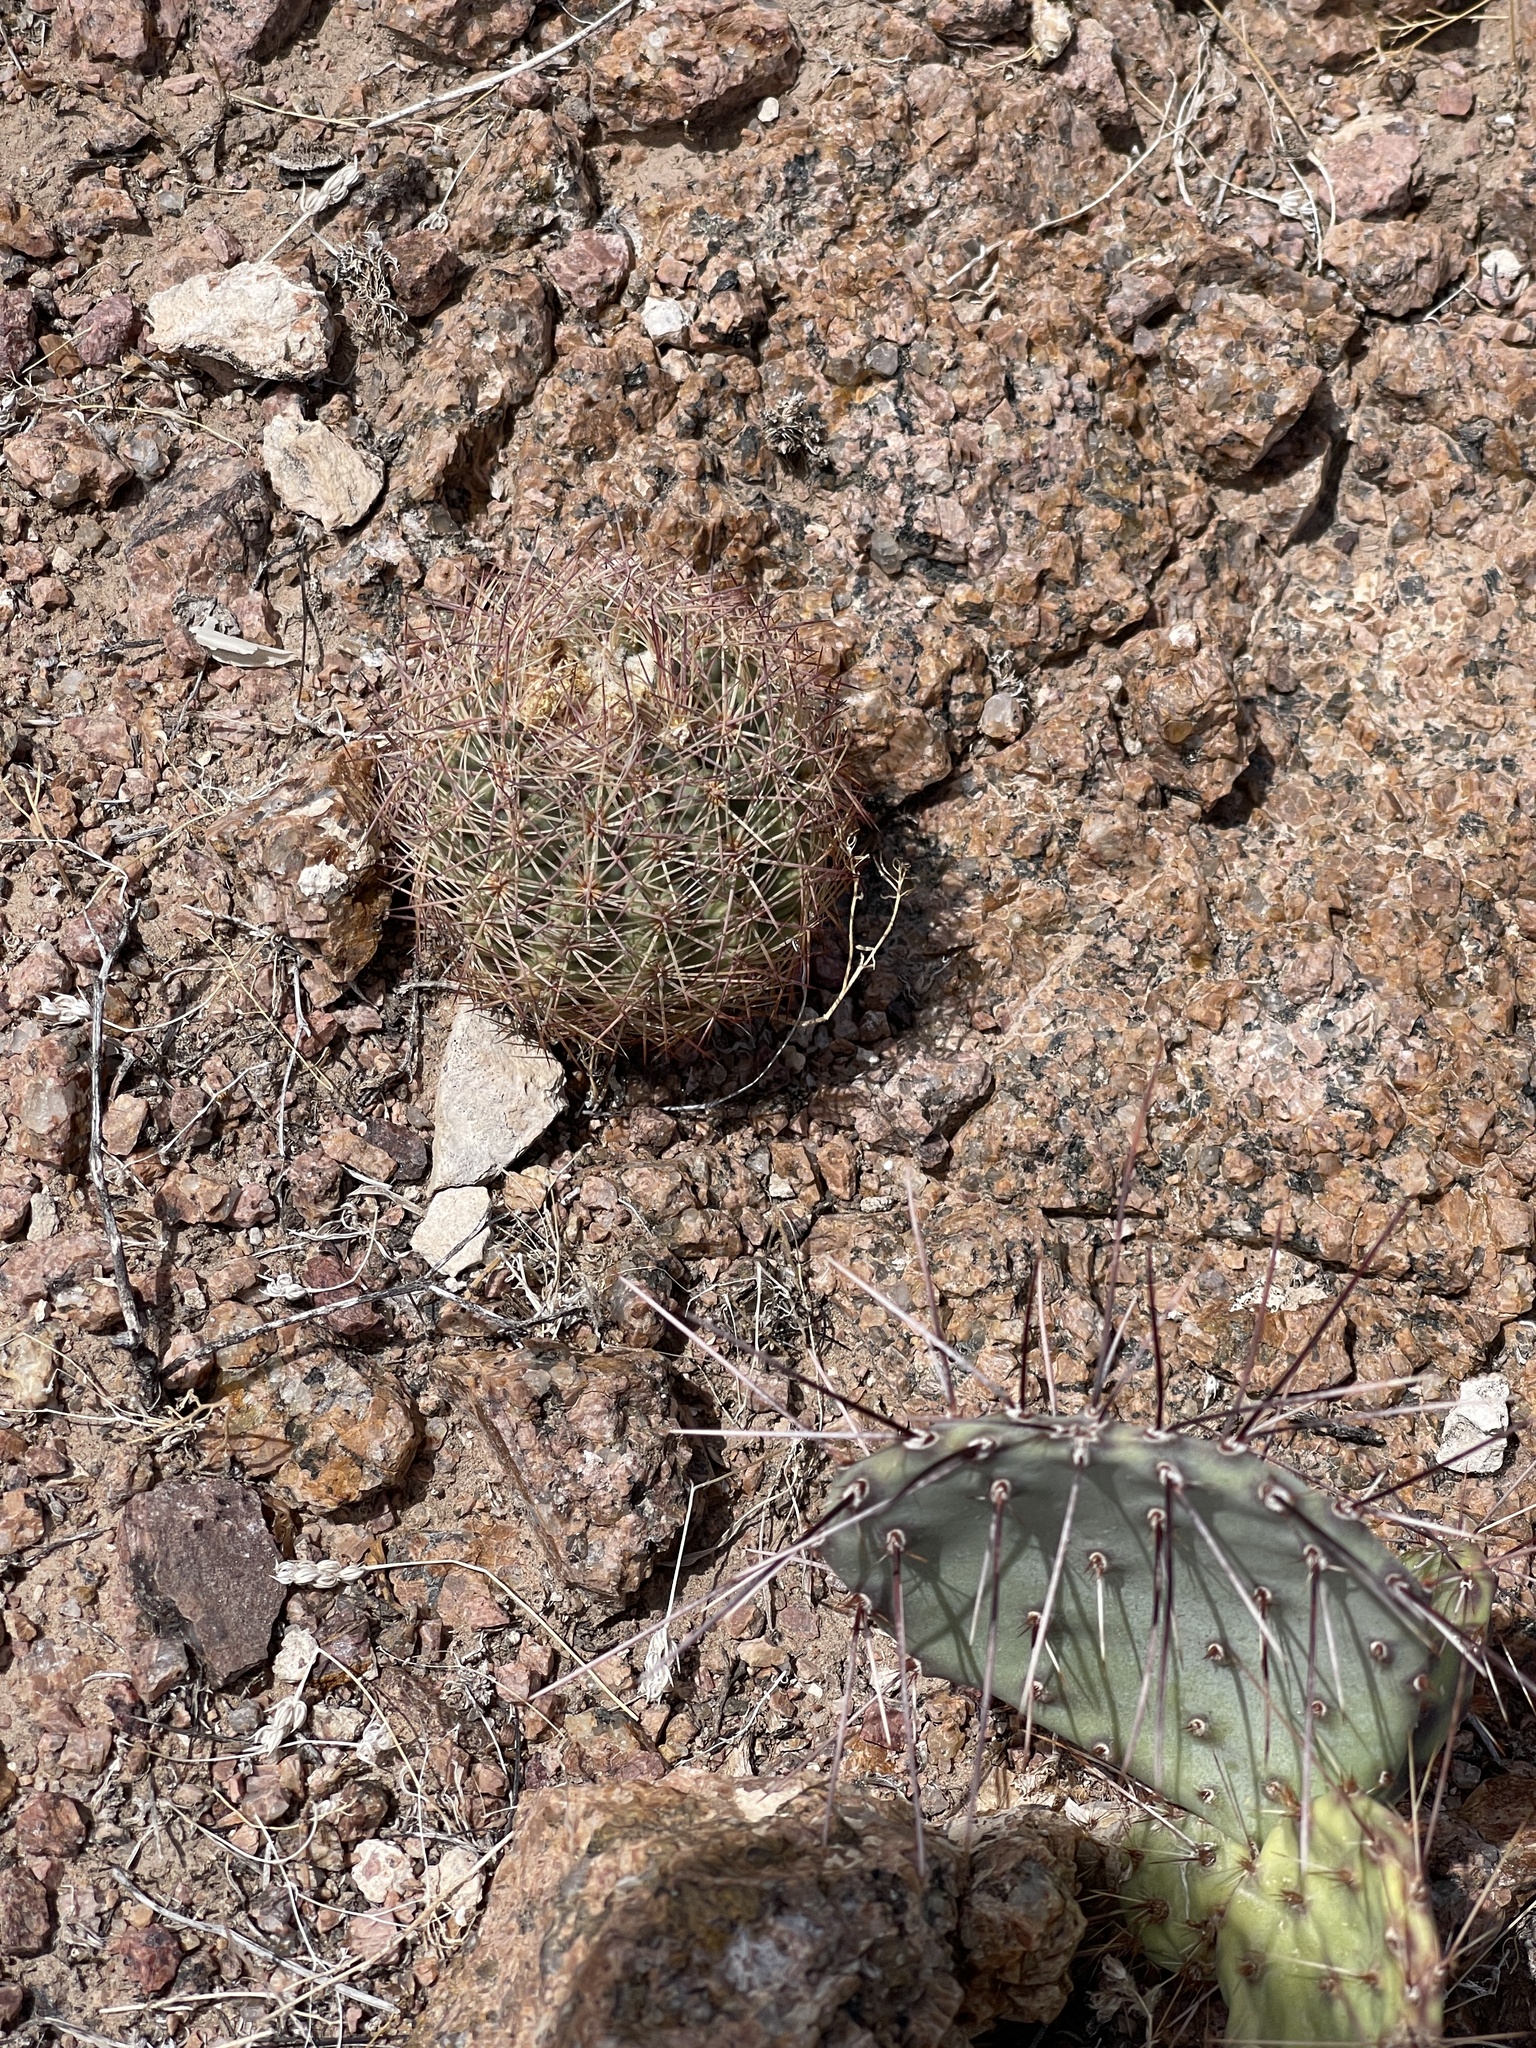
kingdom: Plantae
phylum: Tracheophyta
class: Magnoliopsida
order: Caryophyllales
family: Cactaceae
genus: Sclerocactus
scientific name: Sclerocactus intertextus
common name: White fish-hook cactus
